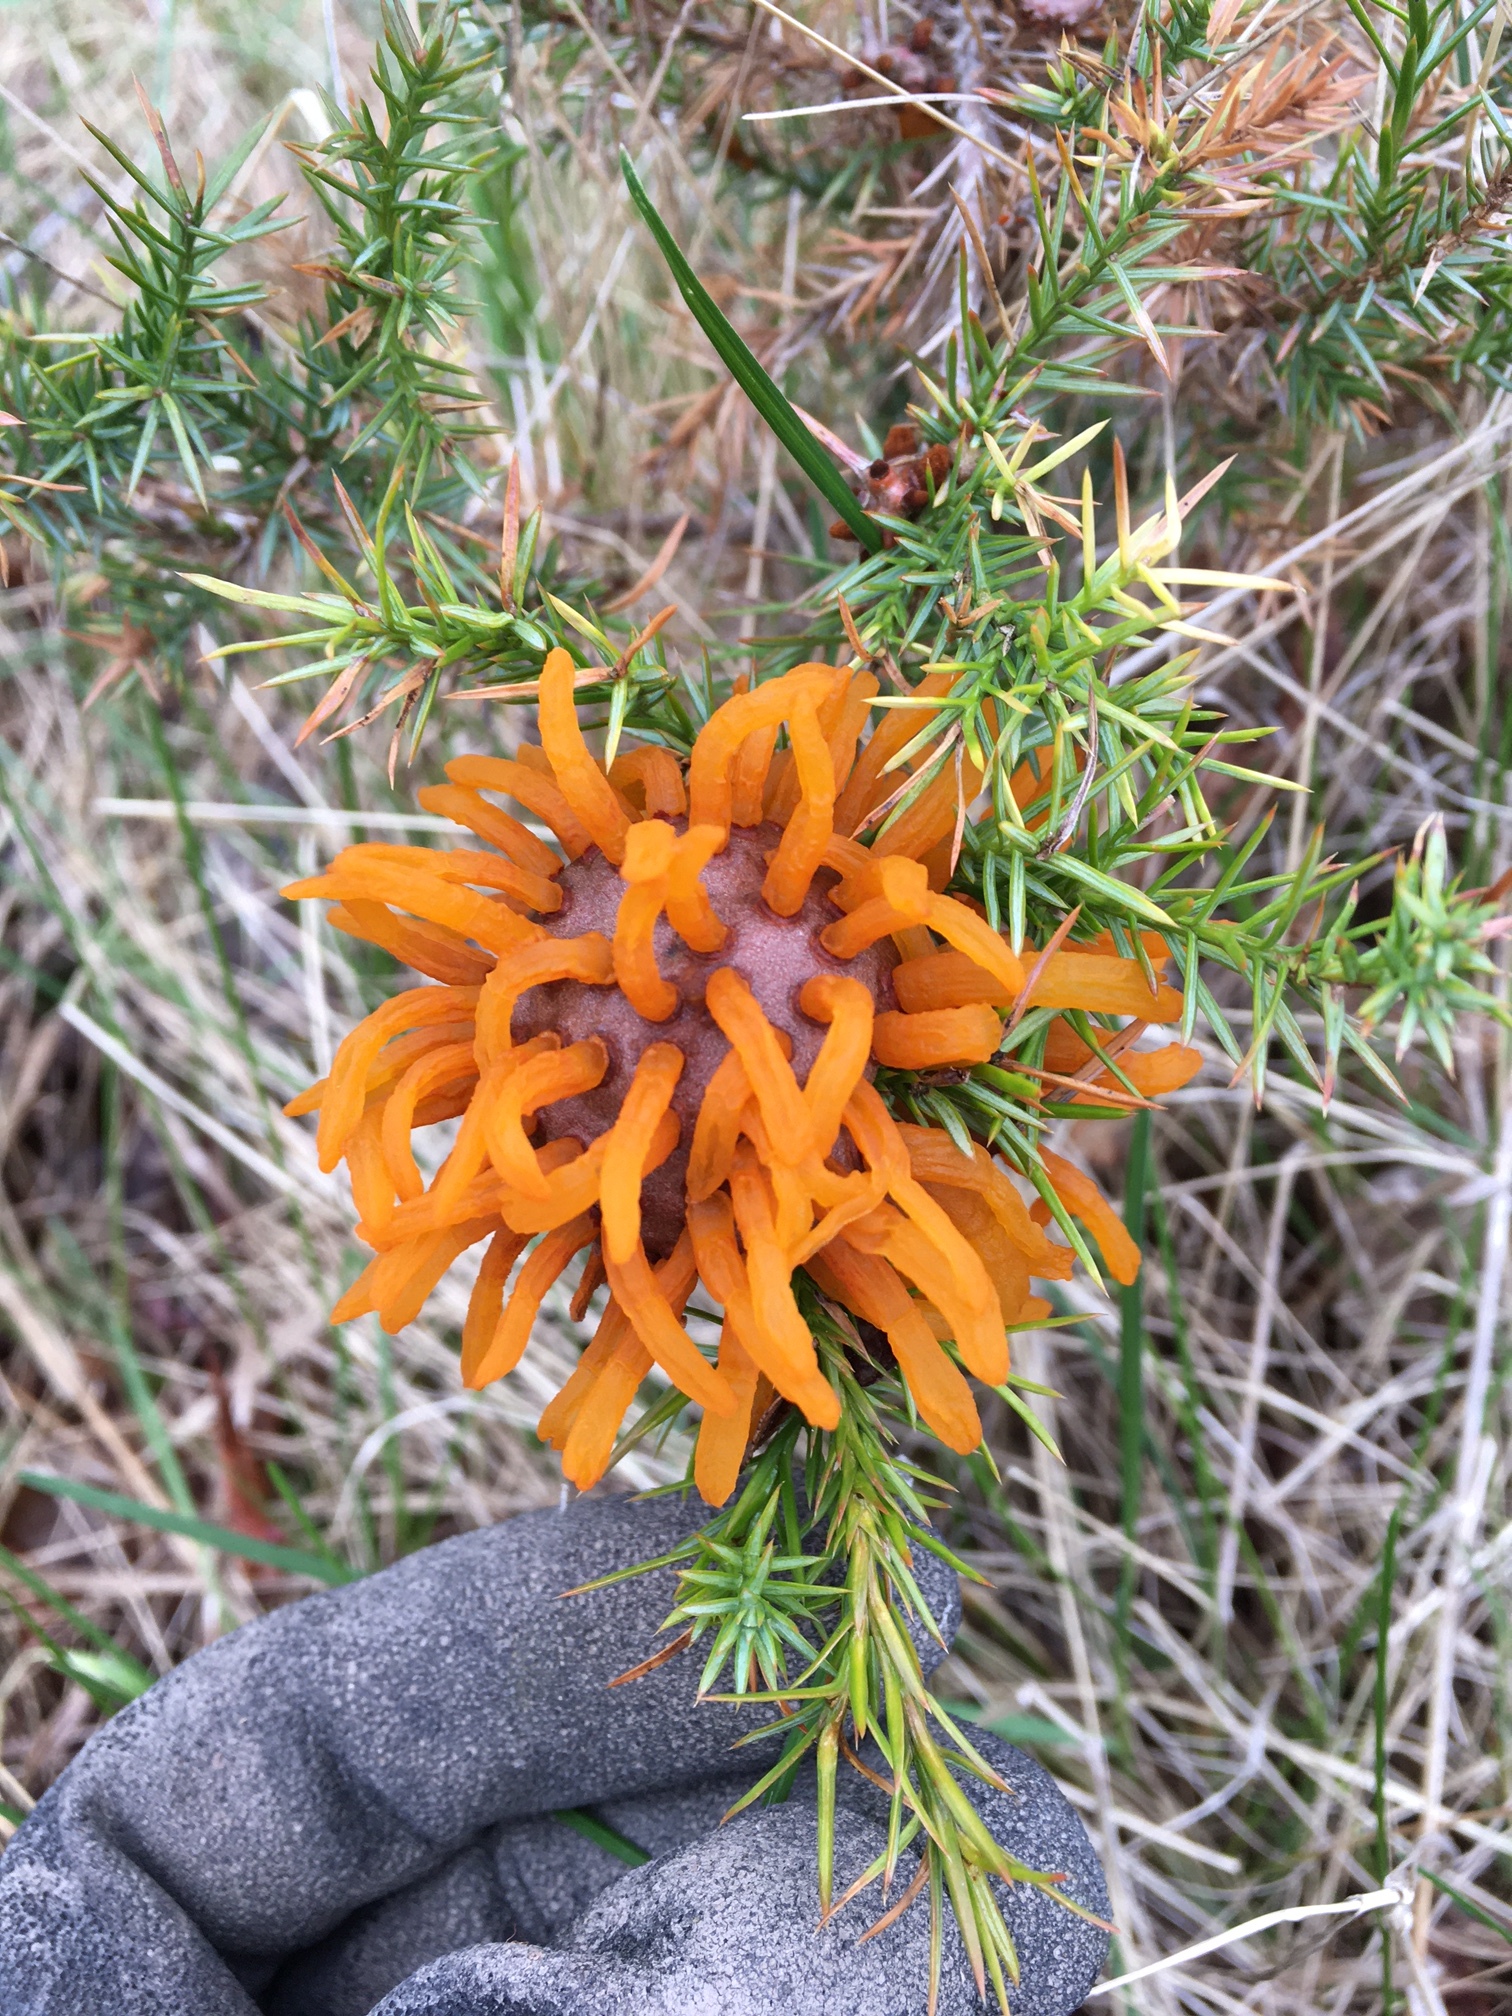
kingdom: Fungi
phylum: Basidiomycota
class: Pucciniomycetes
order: Pucciniales
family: Gymnosporangiaceae
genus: Gymnosporangium
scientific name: Gymnosporangium juniperi-virginianae
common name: Juniper-apple rust
